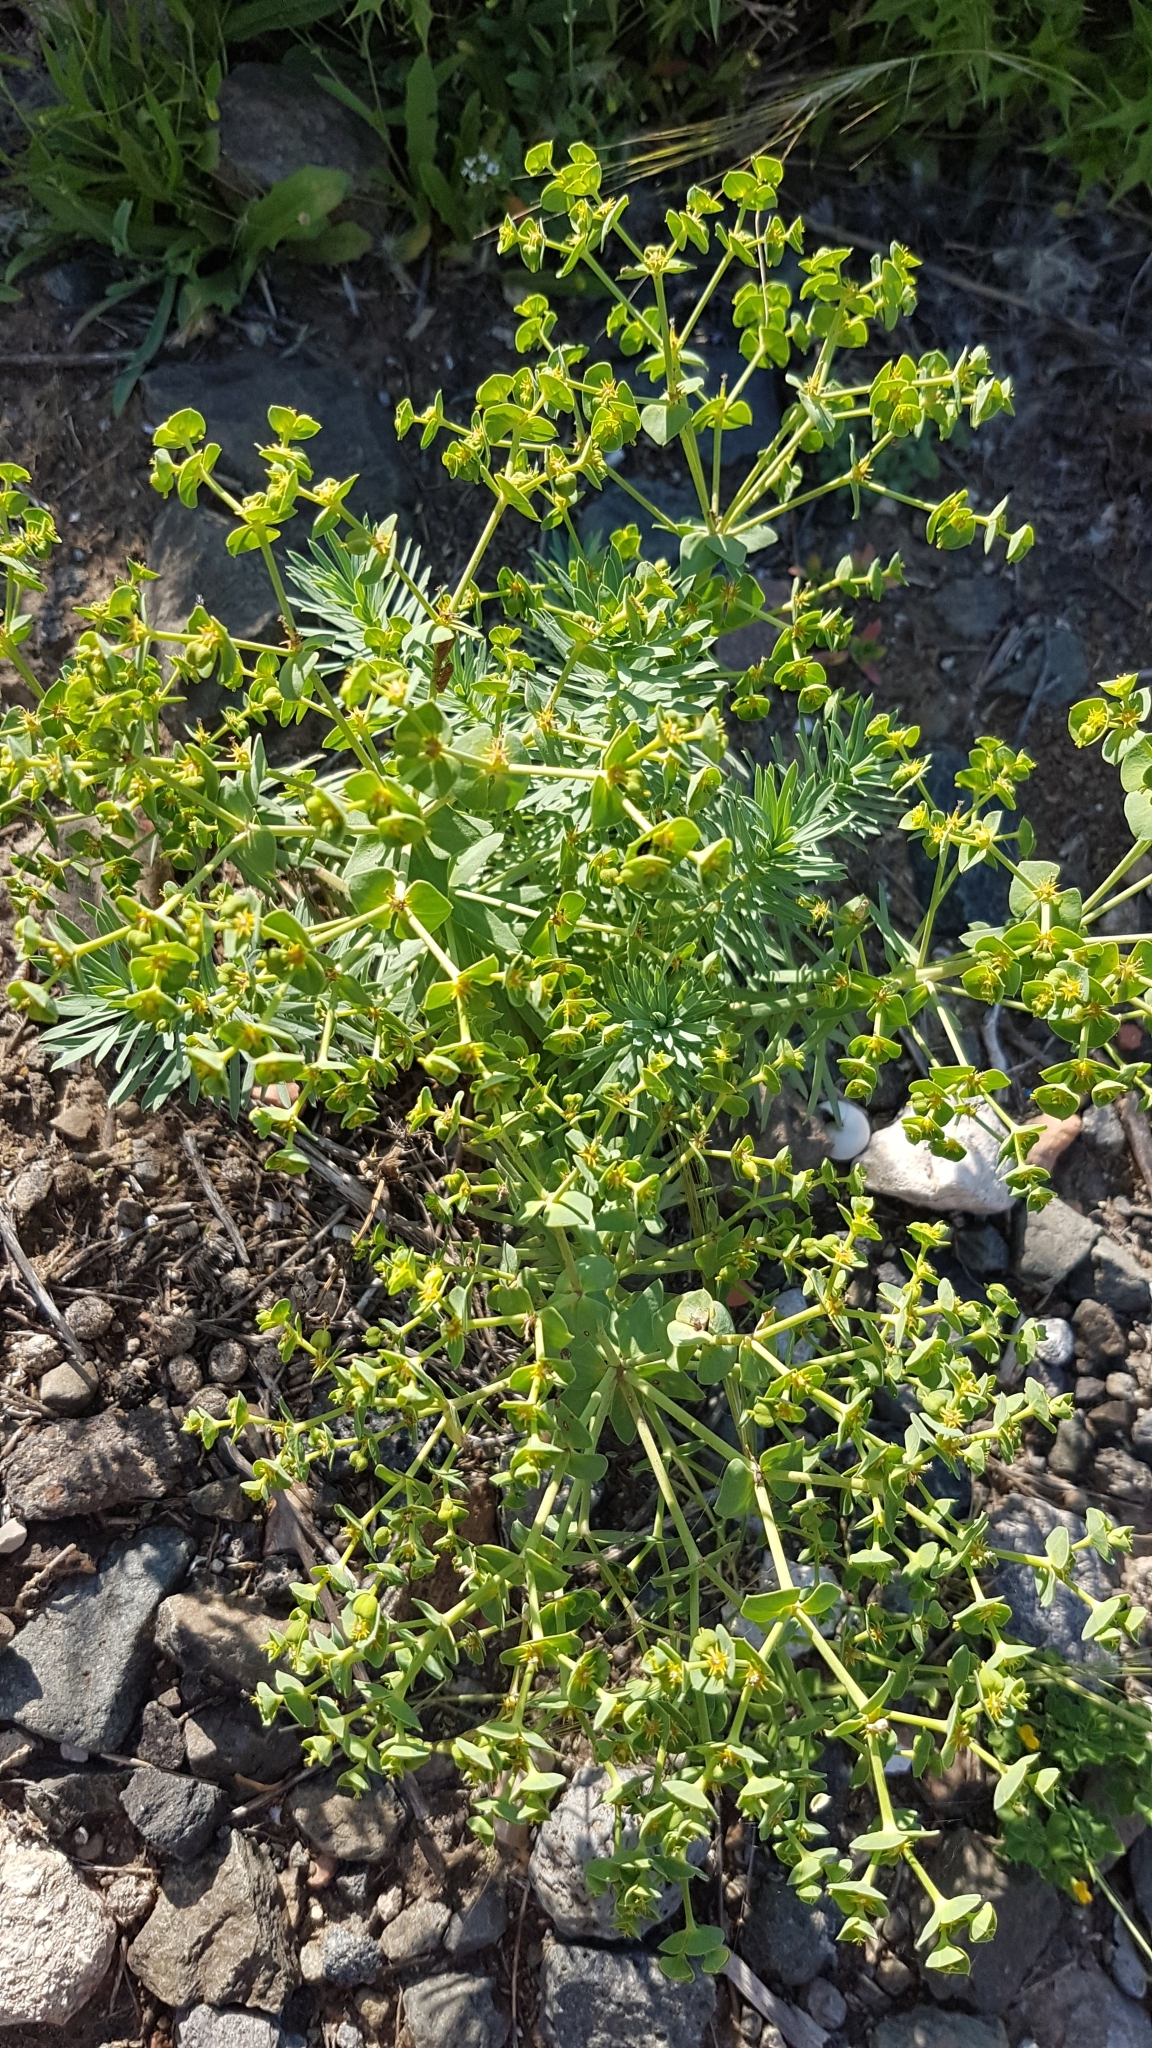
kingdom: Plantae
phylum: Tracheophyta
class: Magnoliopsida
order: Malpighiales
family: Euphorbiaceae
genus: Euphorbia
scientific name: Euphorbia segetalis
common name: Corn spurge
